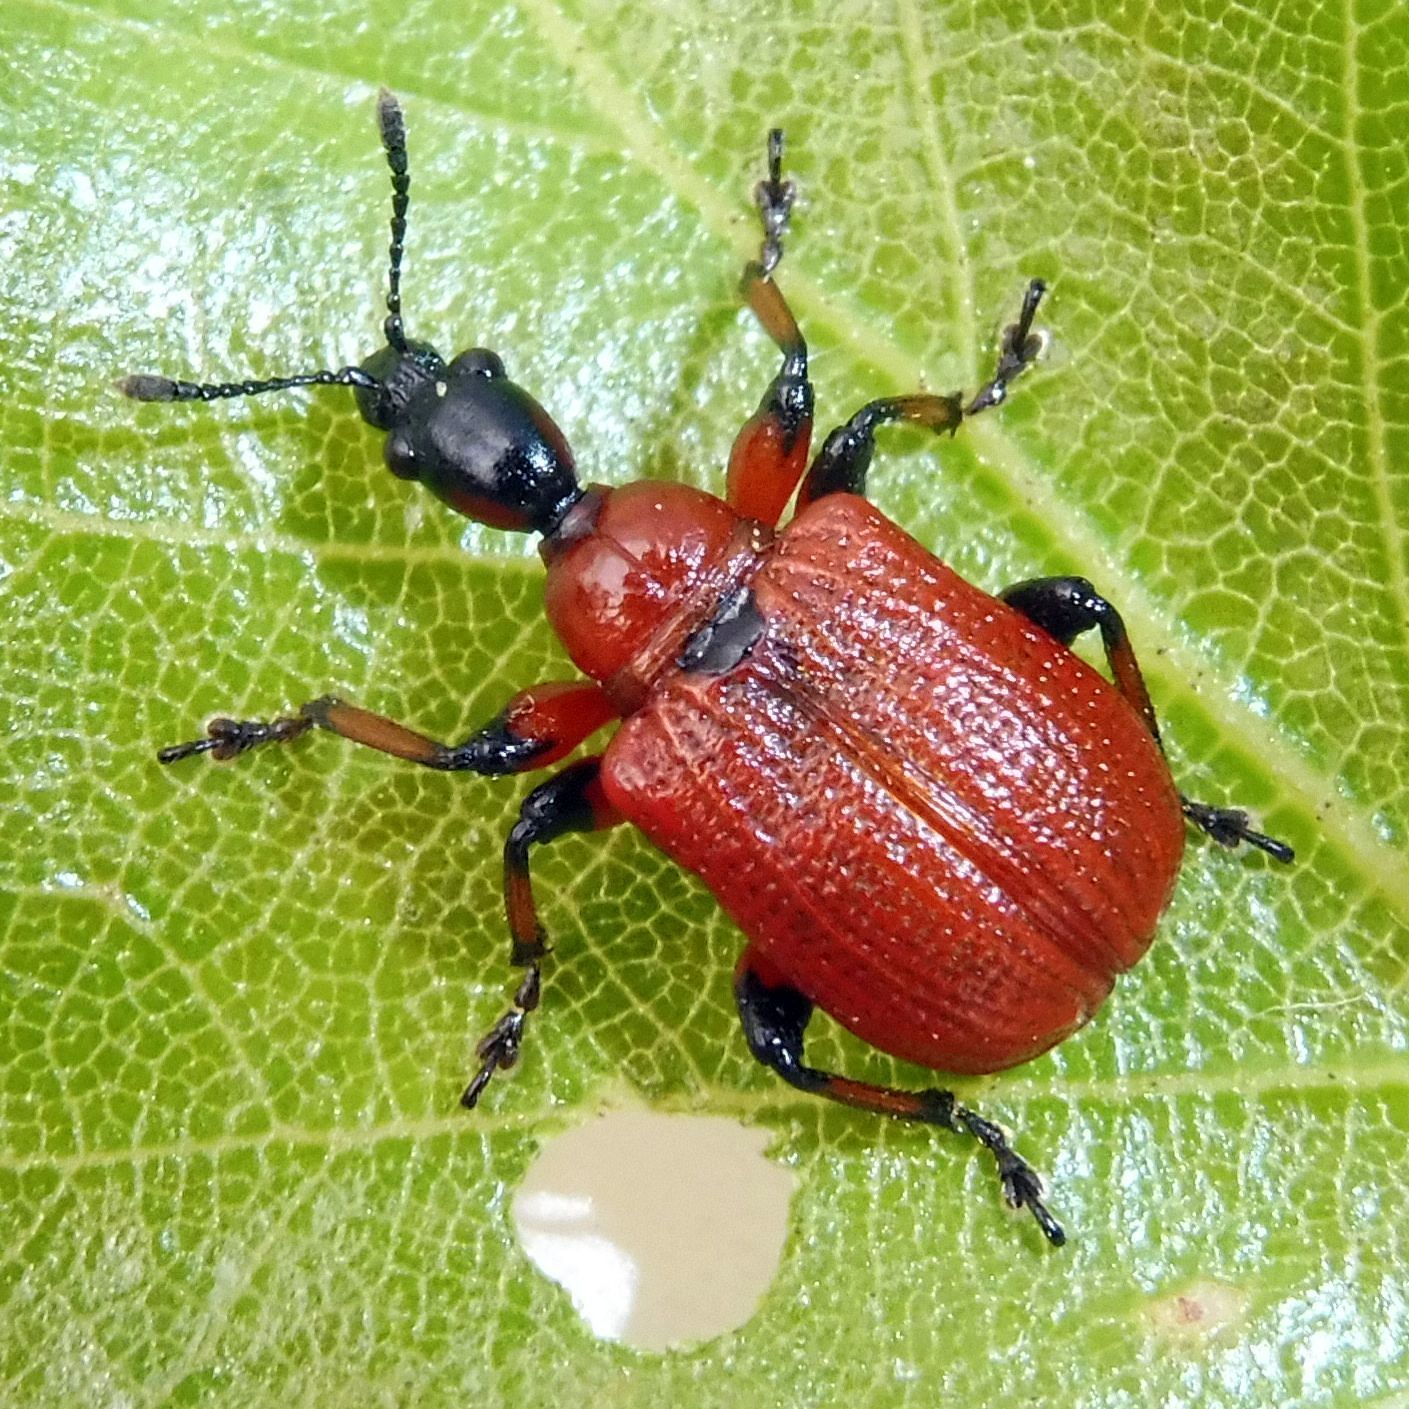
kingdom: Animalia
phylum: Arthropoda
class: Insecta
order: Coleoptera
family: Attelabidae
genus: Apoderus
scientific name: Apoderus coryli
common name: Hazel leaf roller
